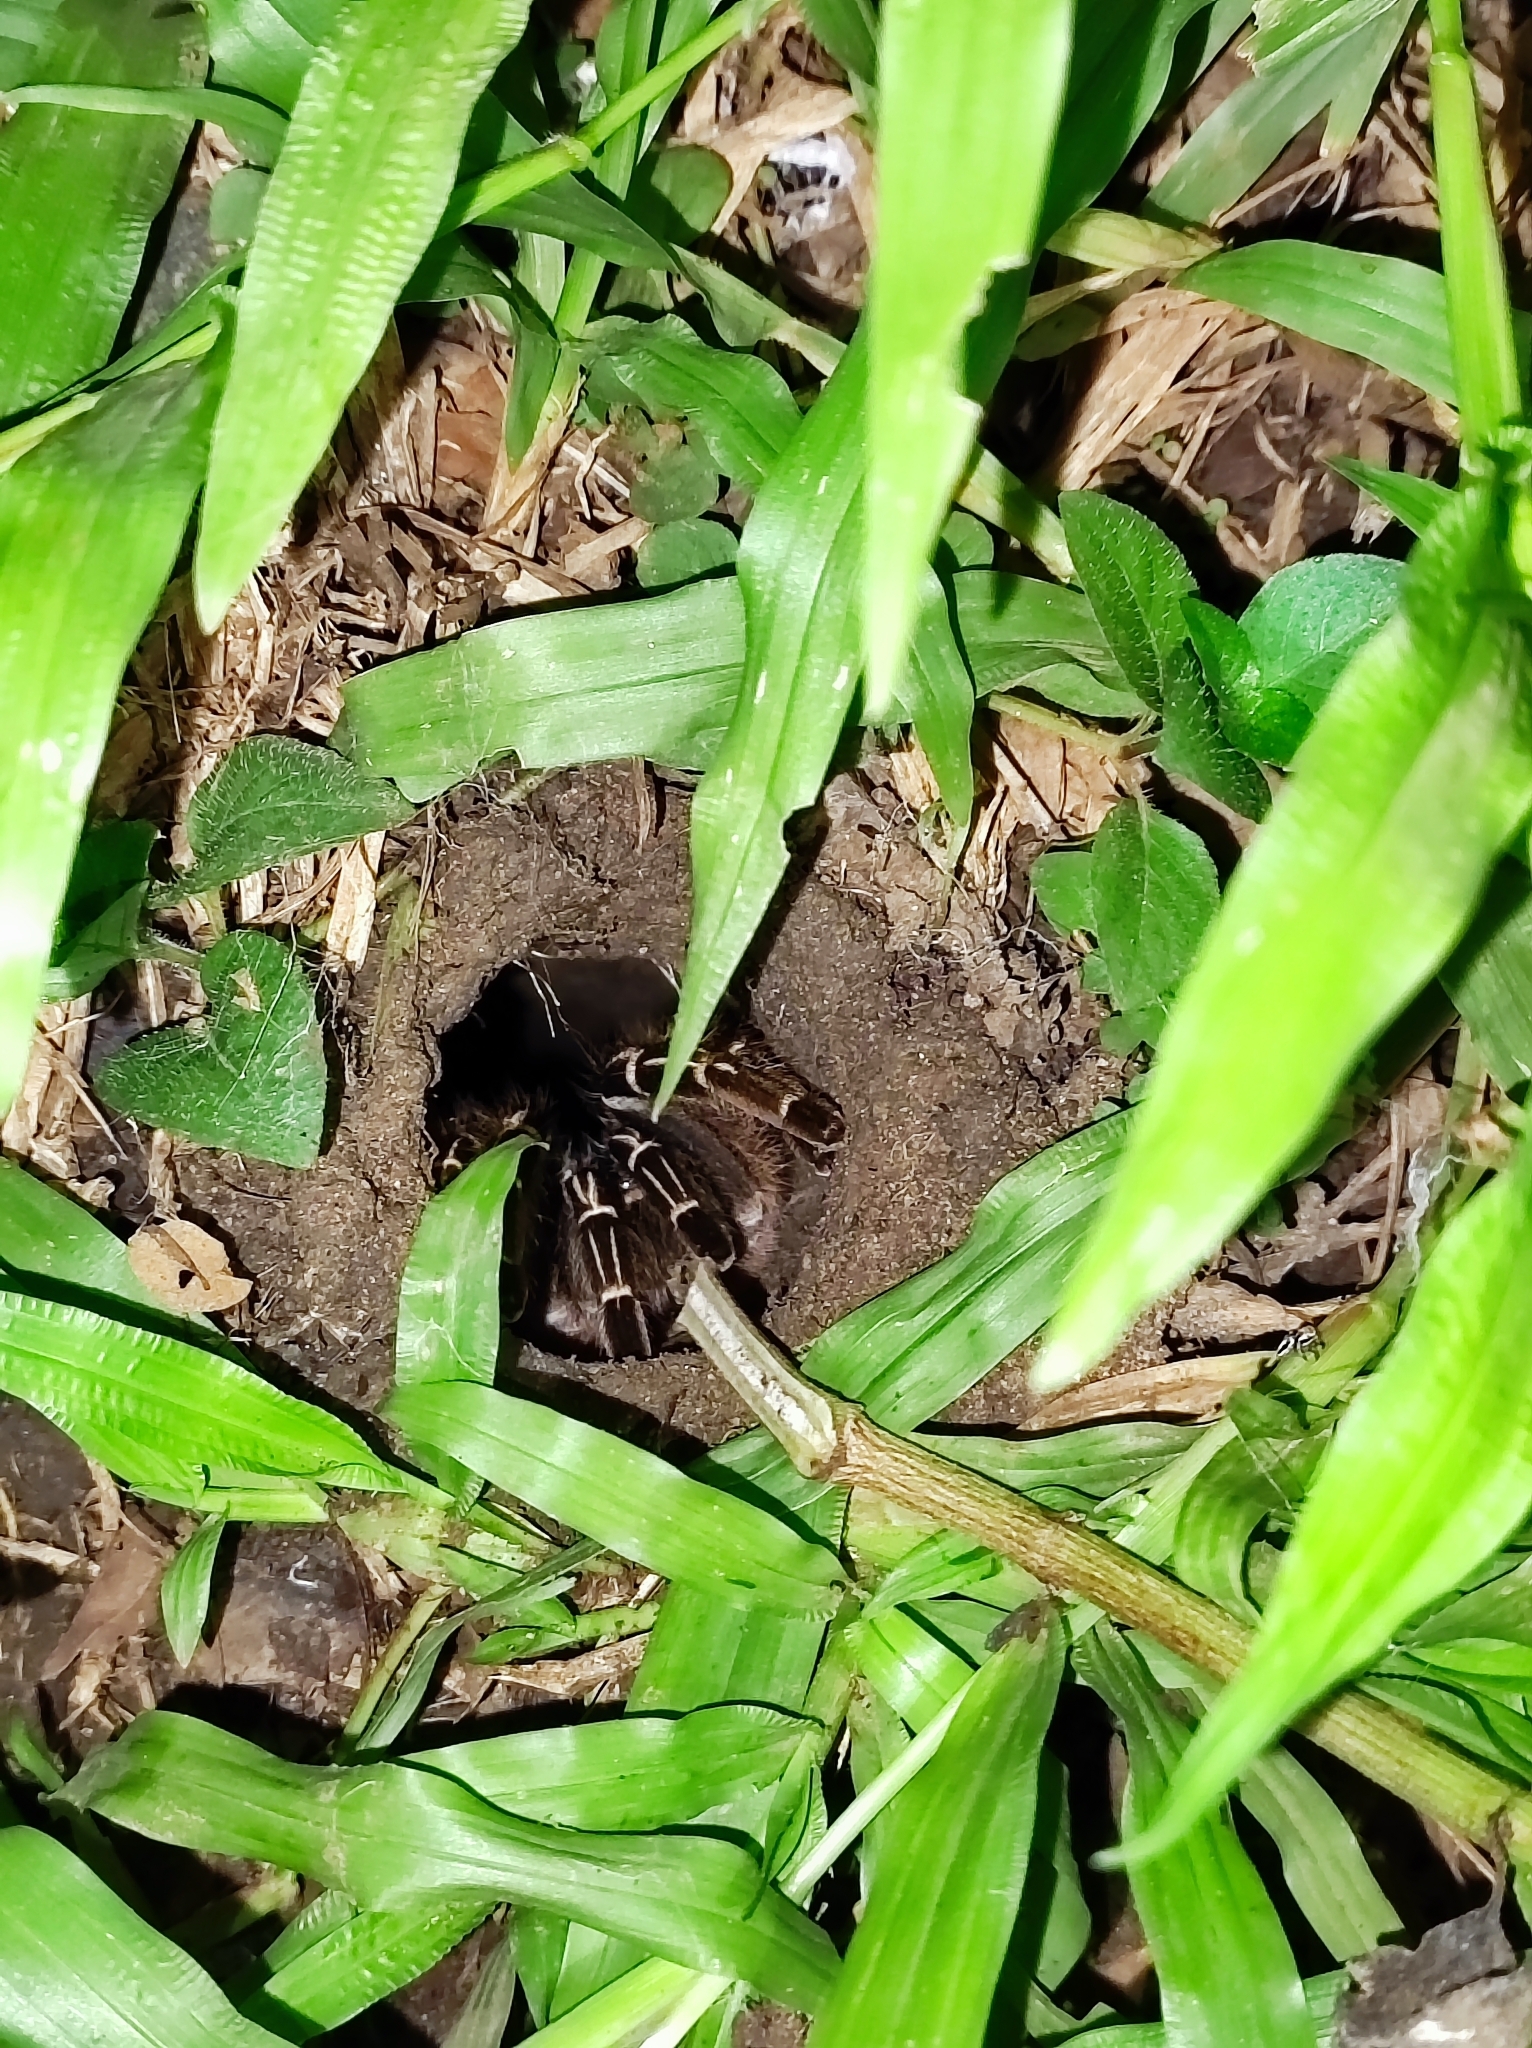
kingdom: Animalia
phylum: Arthropoda
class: Arachnida
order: Araneae
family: Theraphosidae
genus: Aphonopelma
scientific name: Aphonopelma seemanni
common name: Tarantula spiders
